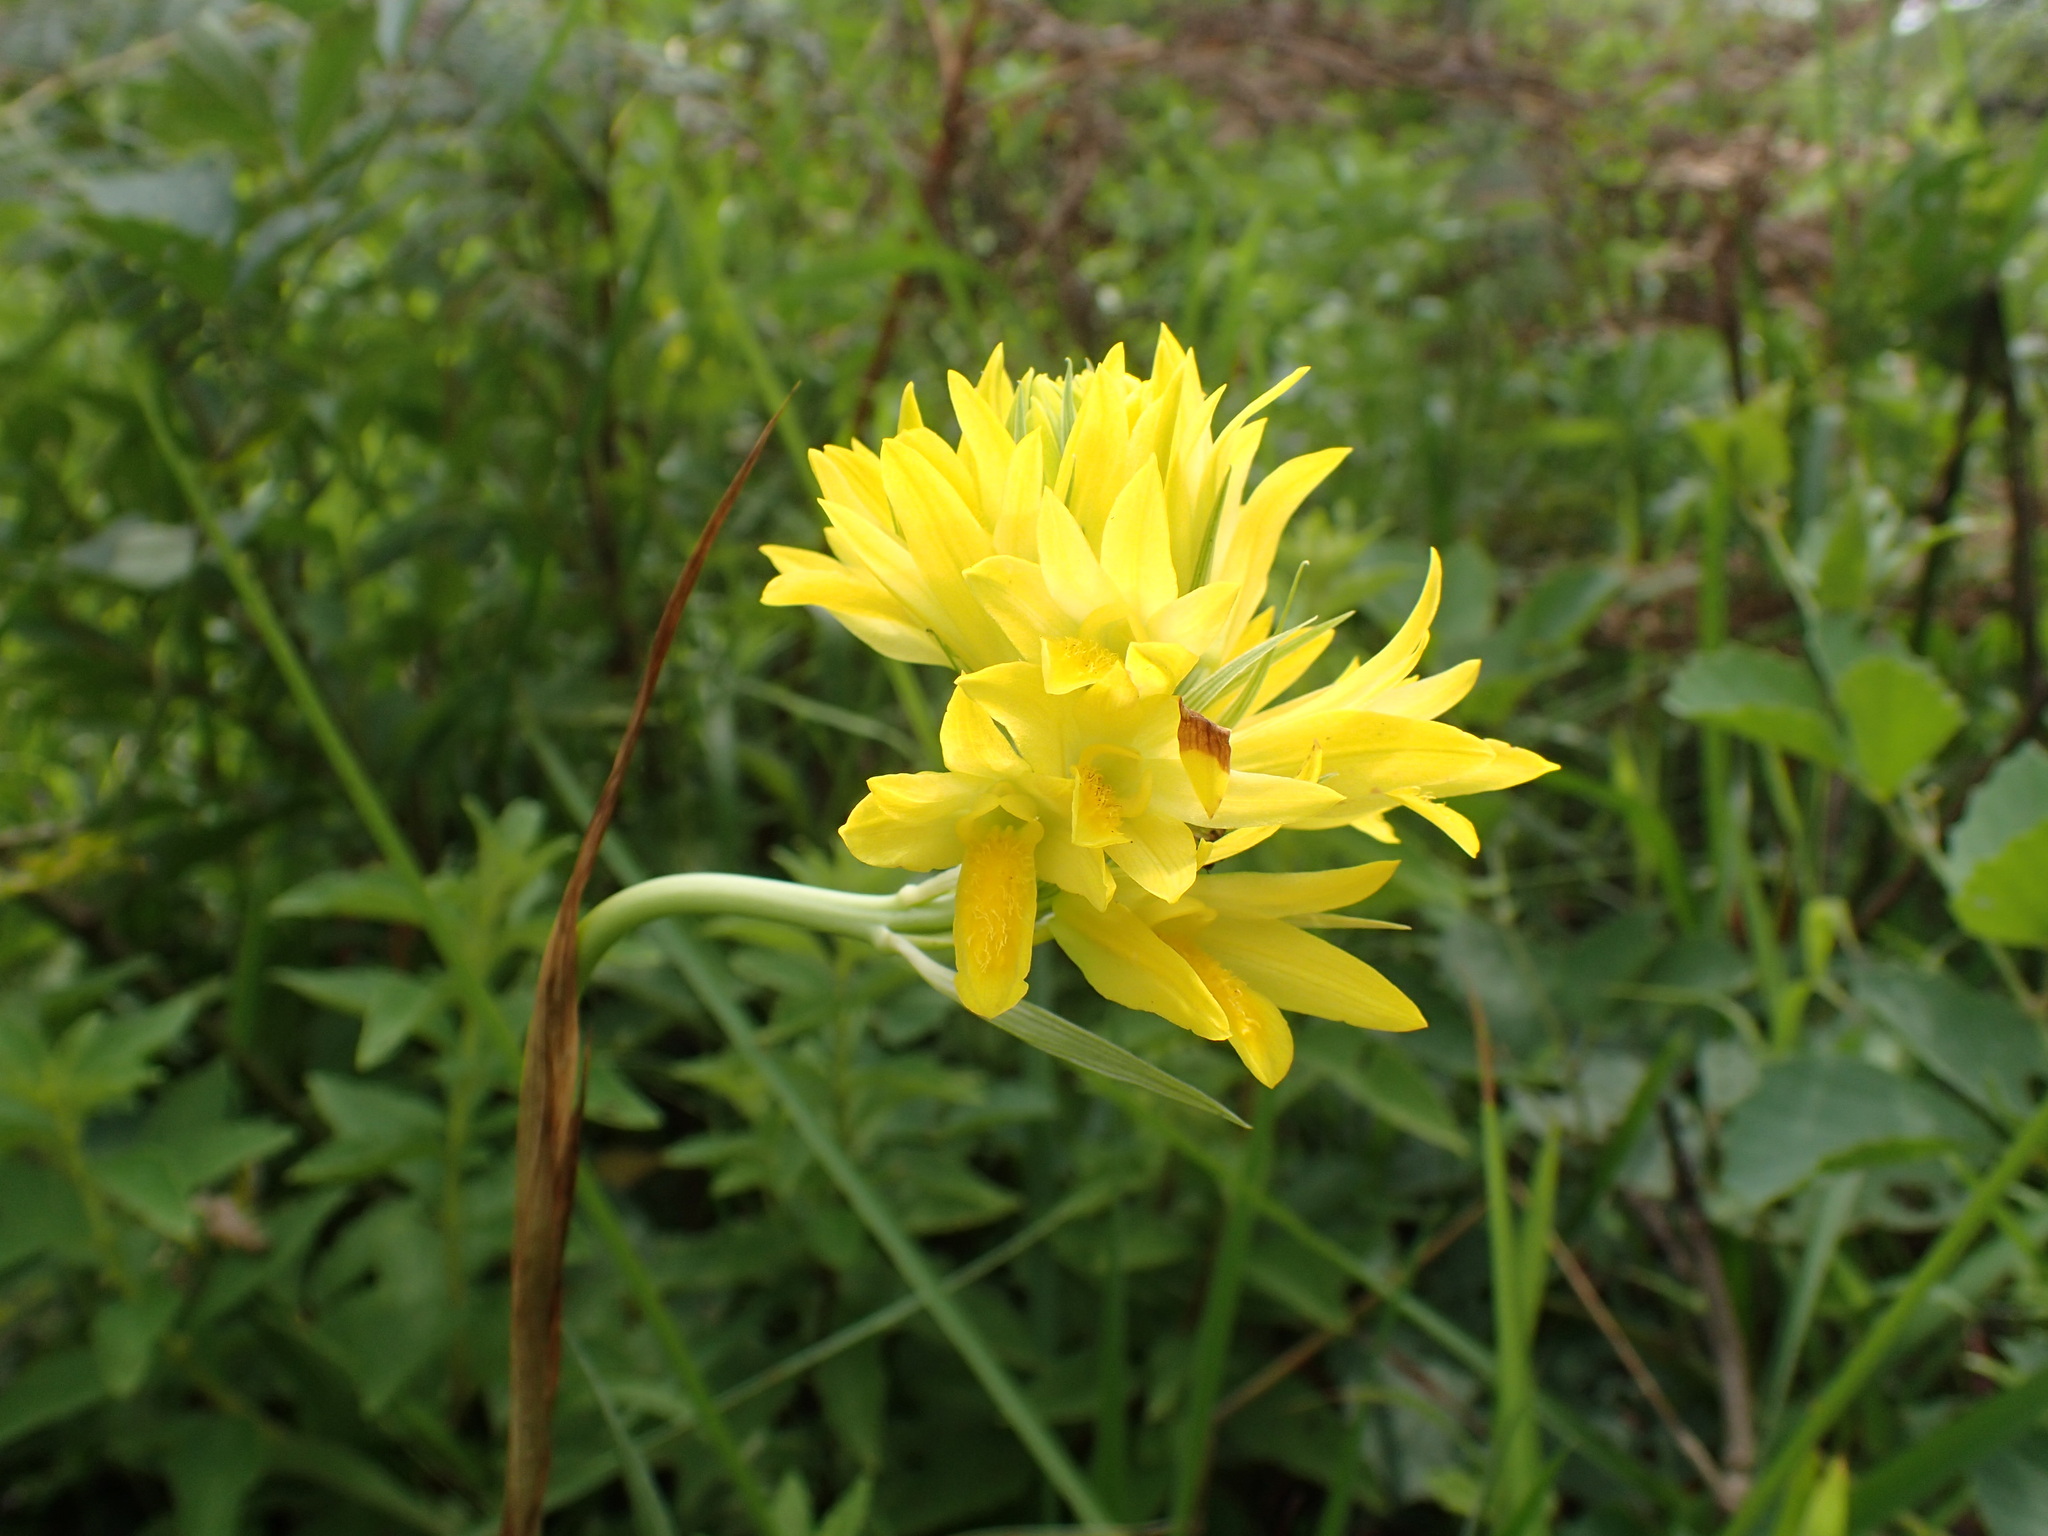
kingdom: Plantae
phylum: Tracheophyta
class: Liliopsida
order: Asparagales
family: Orchidaceae
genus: Eulophia
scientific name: Eulophia ensata
